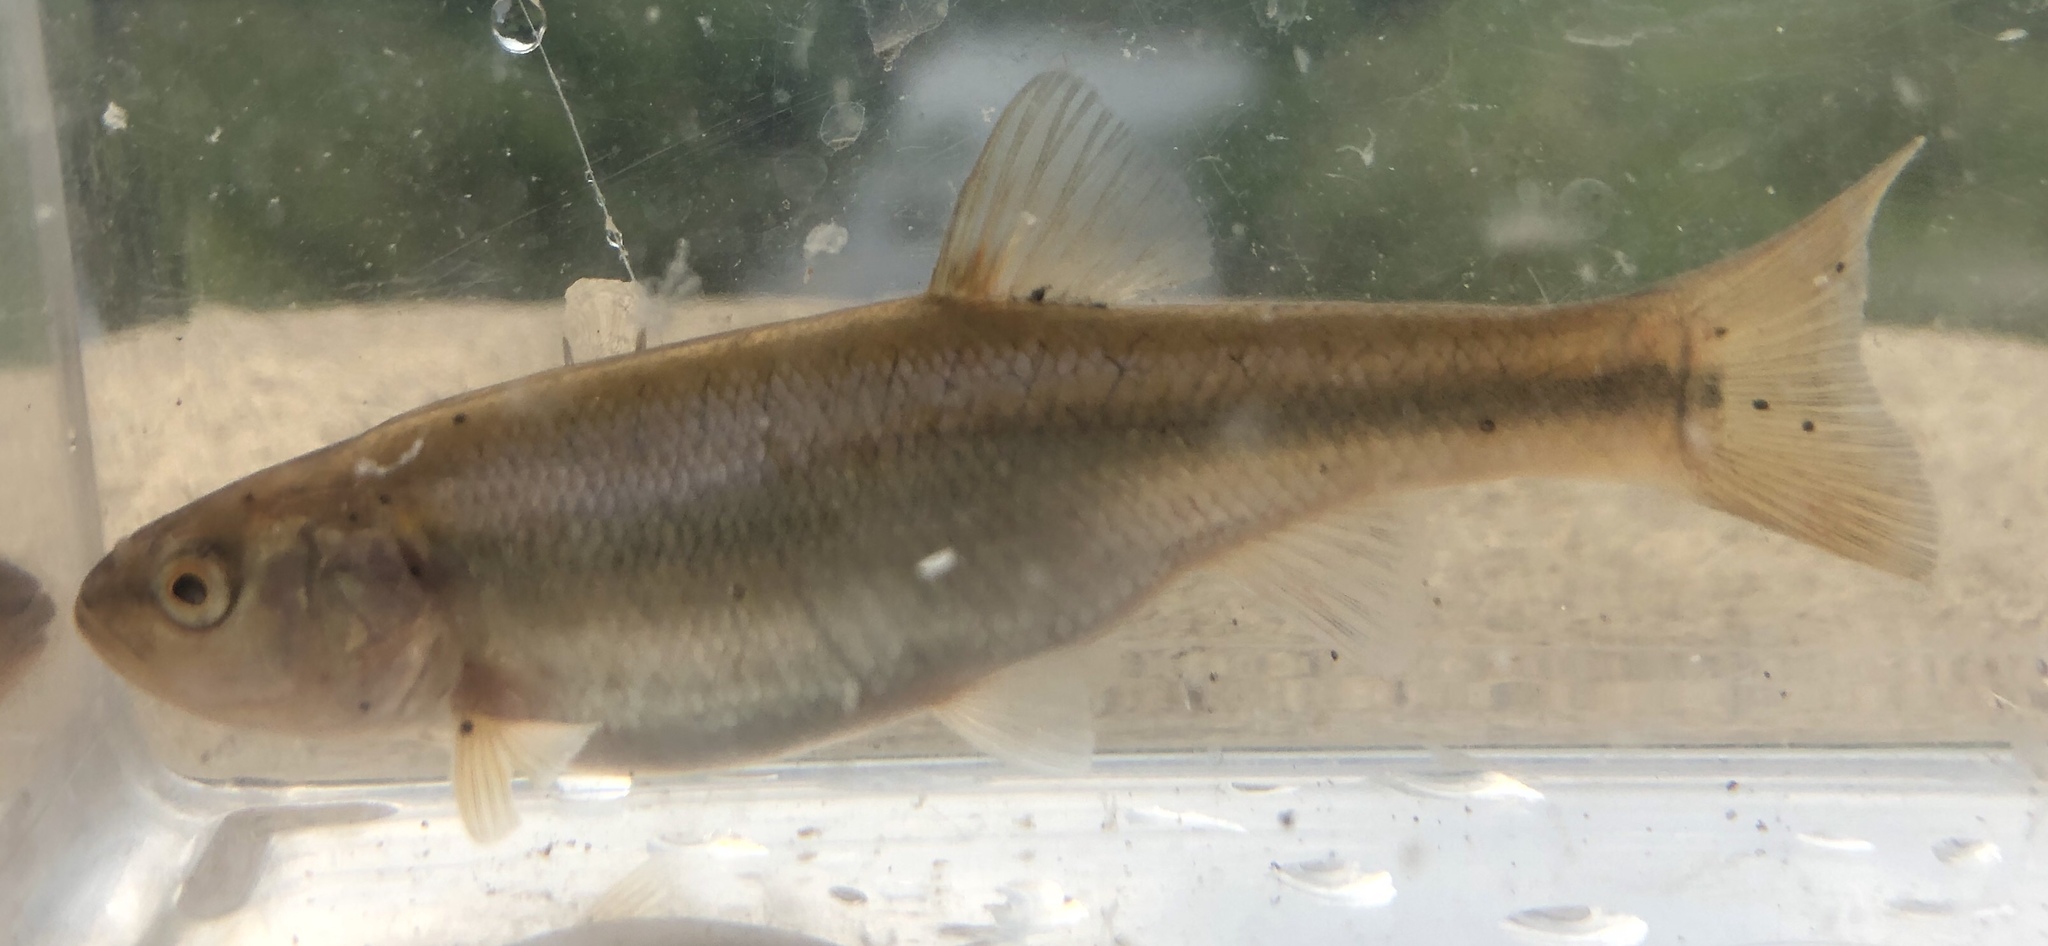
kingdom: Animalia
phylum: Chordata
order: Cypriniformes
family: Cyprinidae
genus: Semotilus
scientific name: Semotilus atromaculatus
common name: Creek chub
